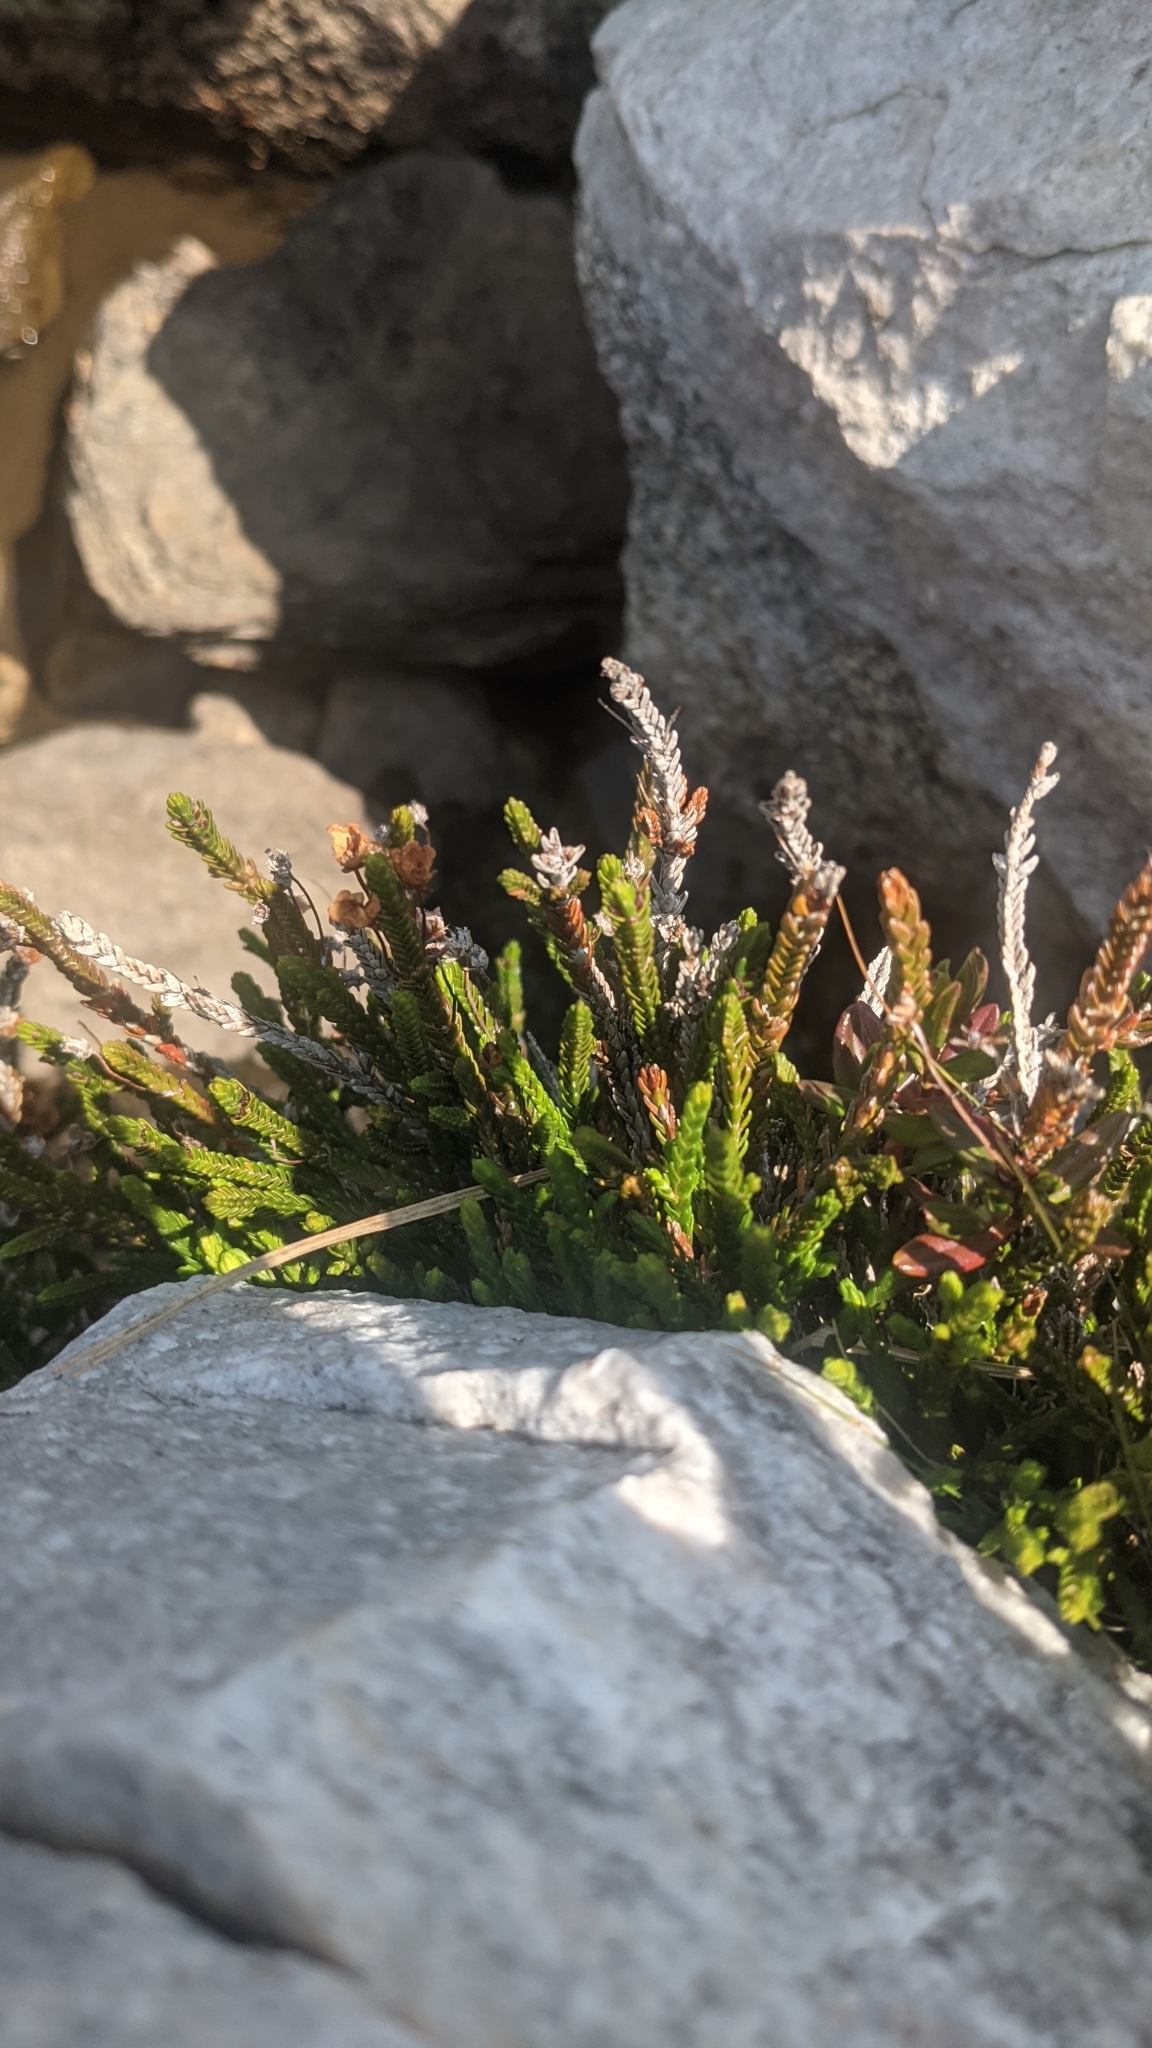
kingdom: Plantae
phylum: Tracheophyta
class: Magnoliopsida
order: Ericales
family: Ericaceae
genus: Cassiope
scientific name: Cassiope mertensiana
